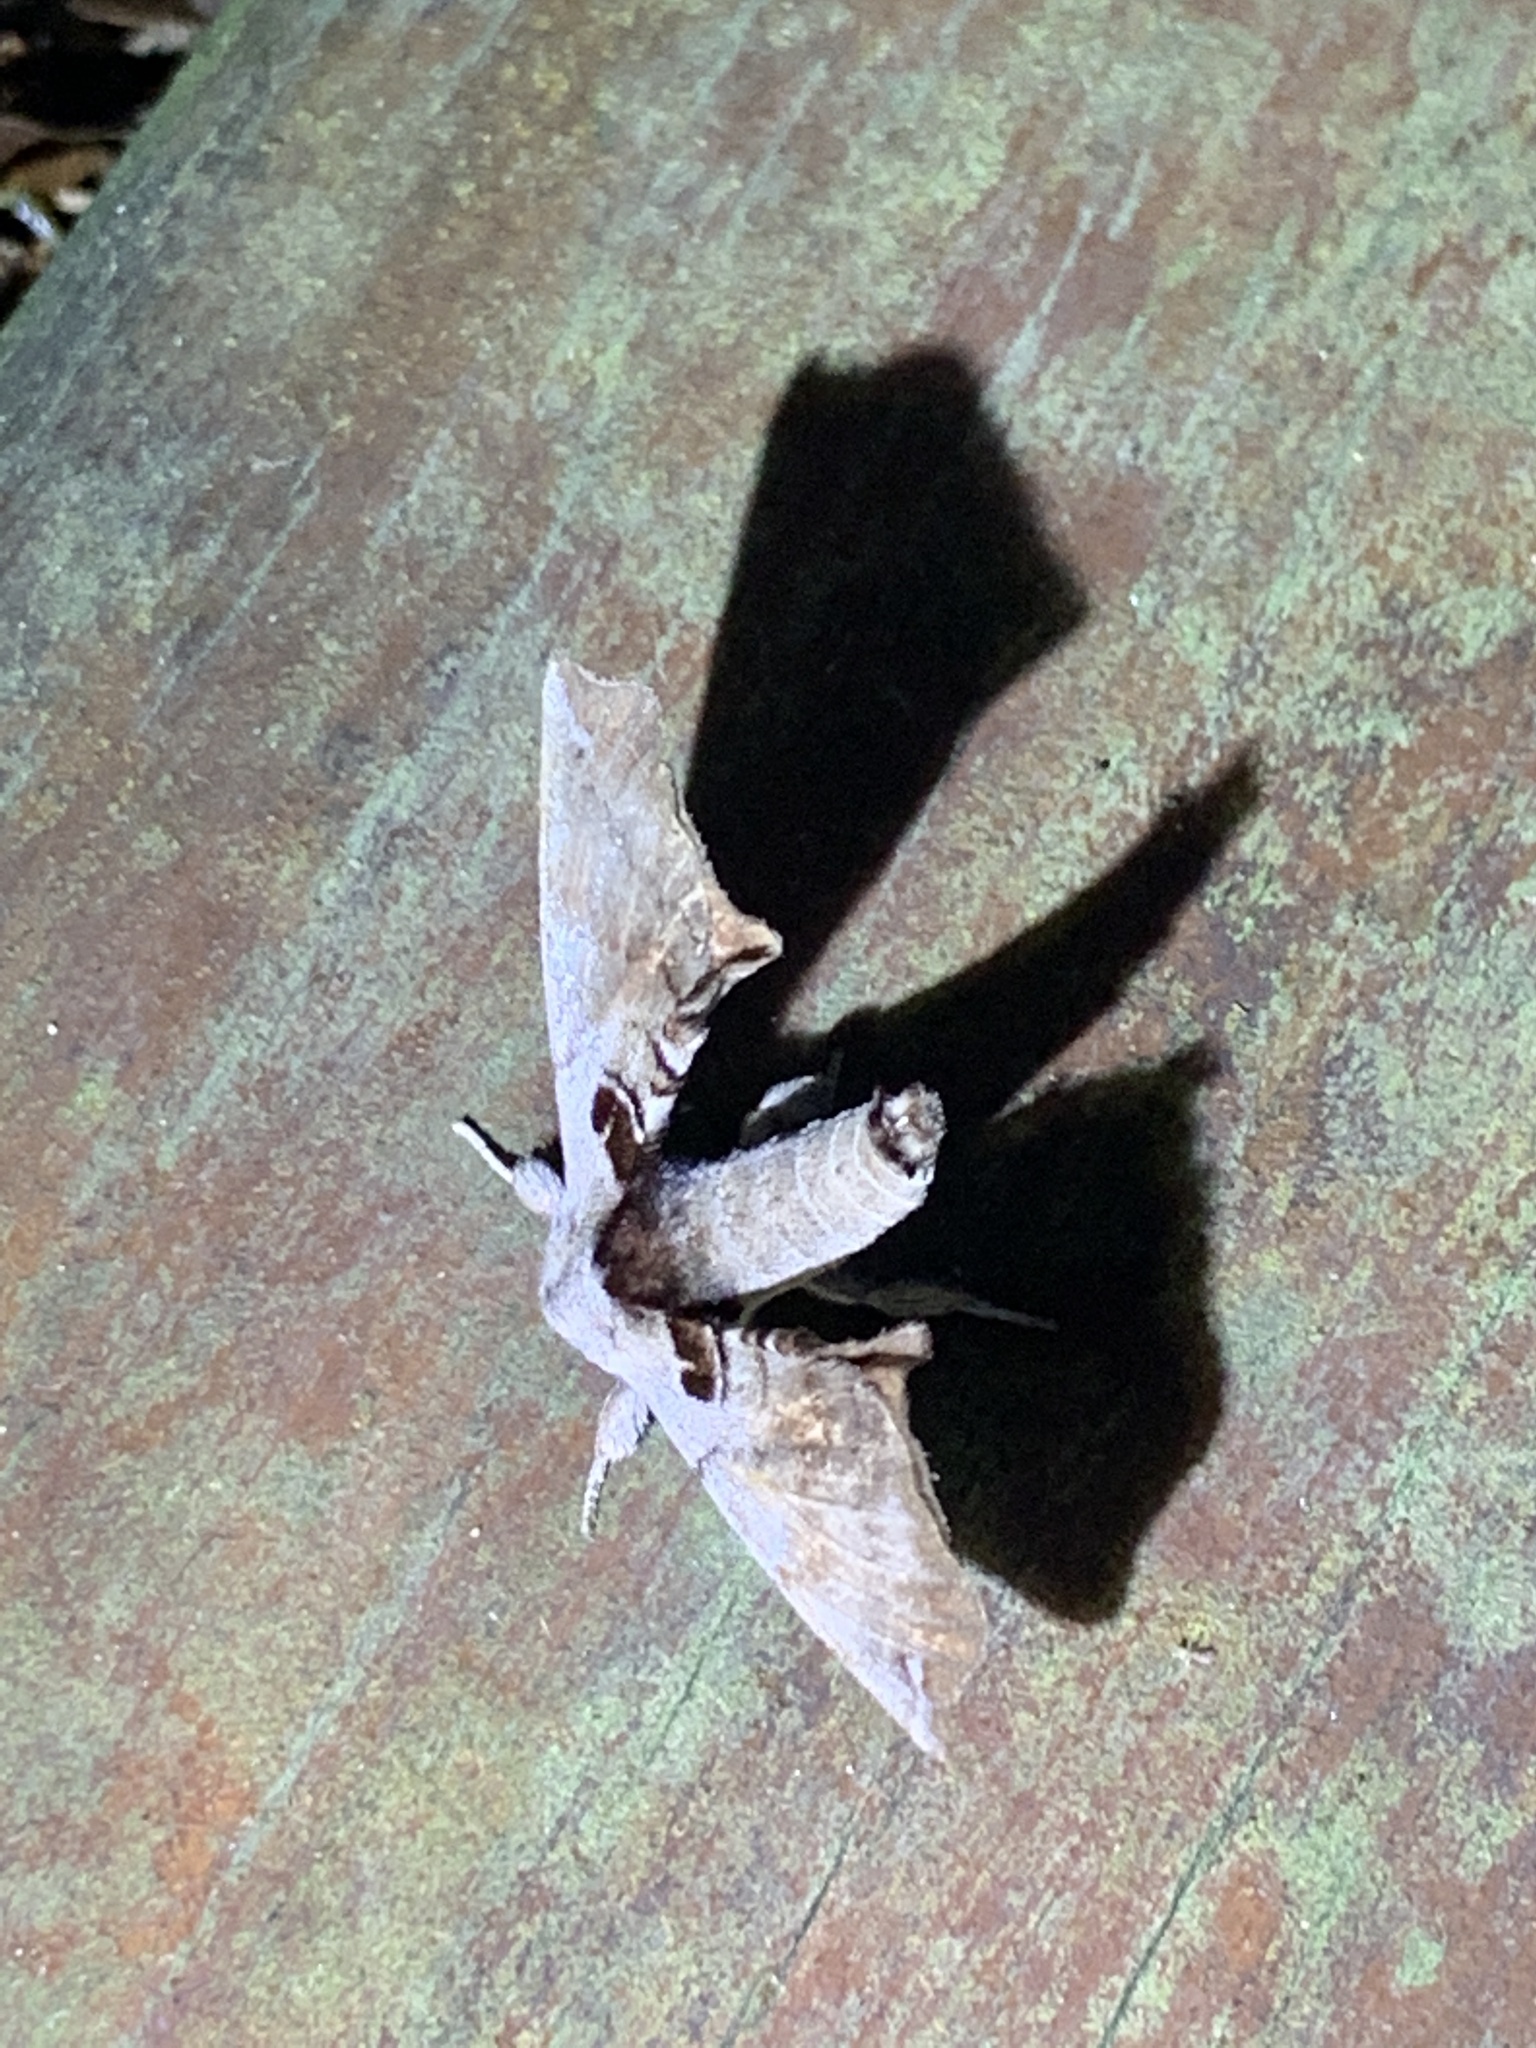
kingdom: Animalia
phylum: Arthropoda
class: Insecta
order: Lepidoptera
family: Apatelodidae
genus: Hygrochroa
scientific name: Hygrochroa Apatelodes torrefacta
